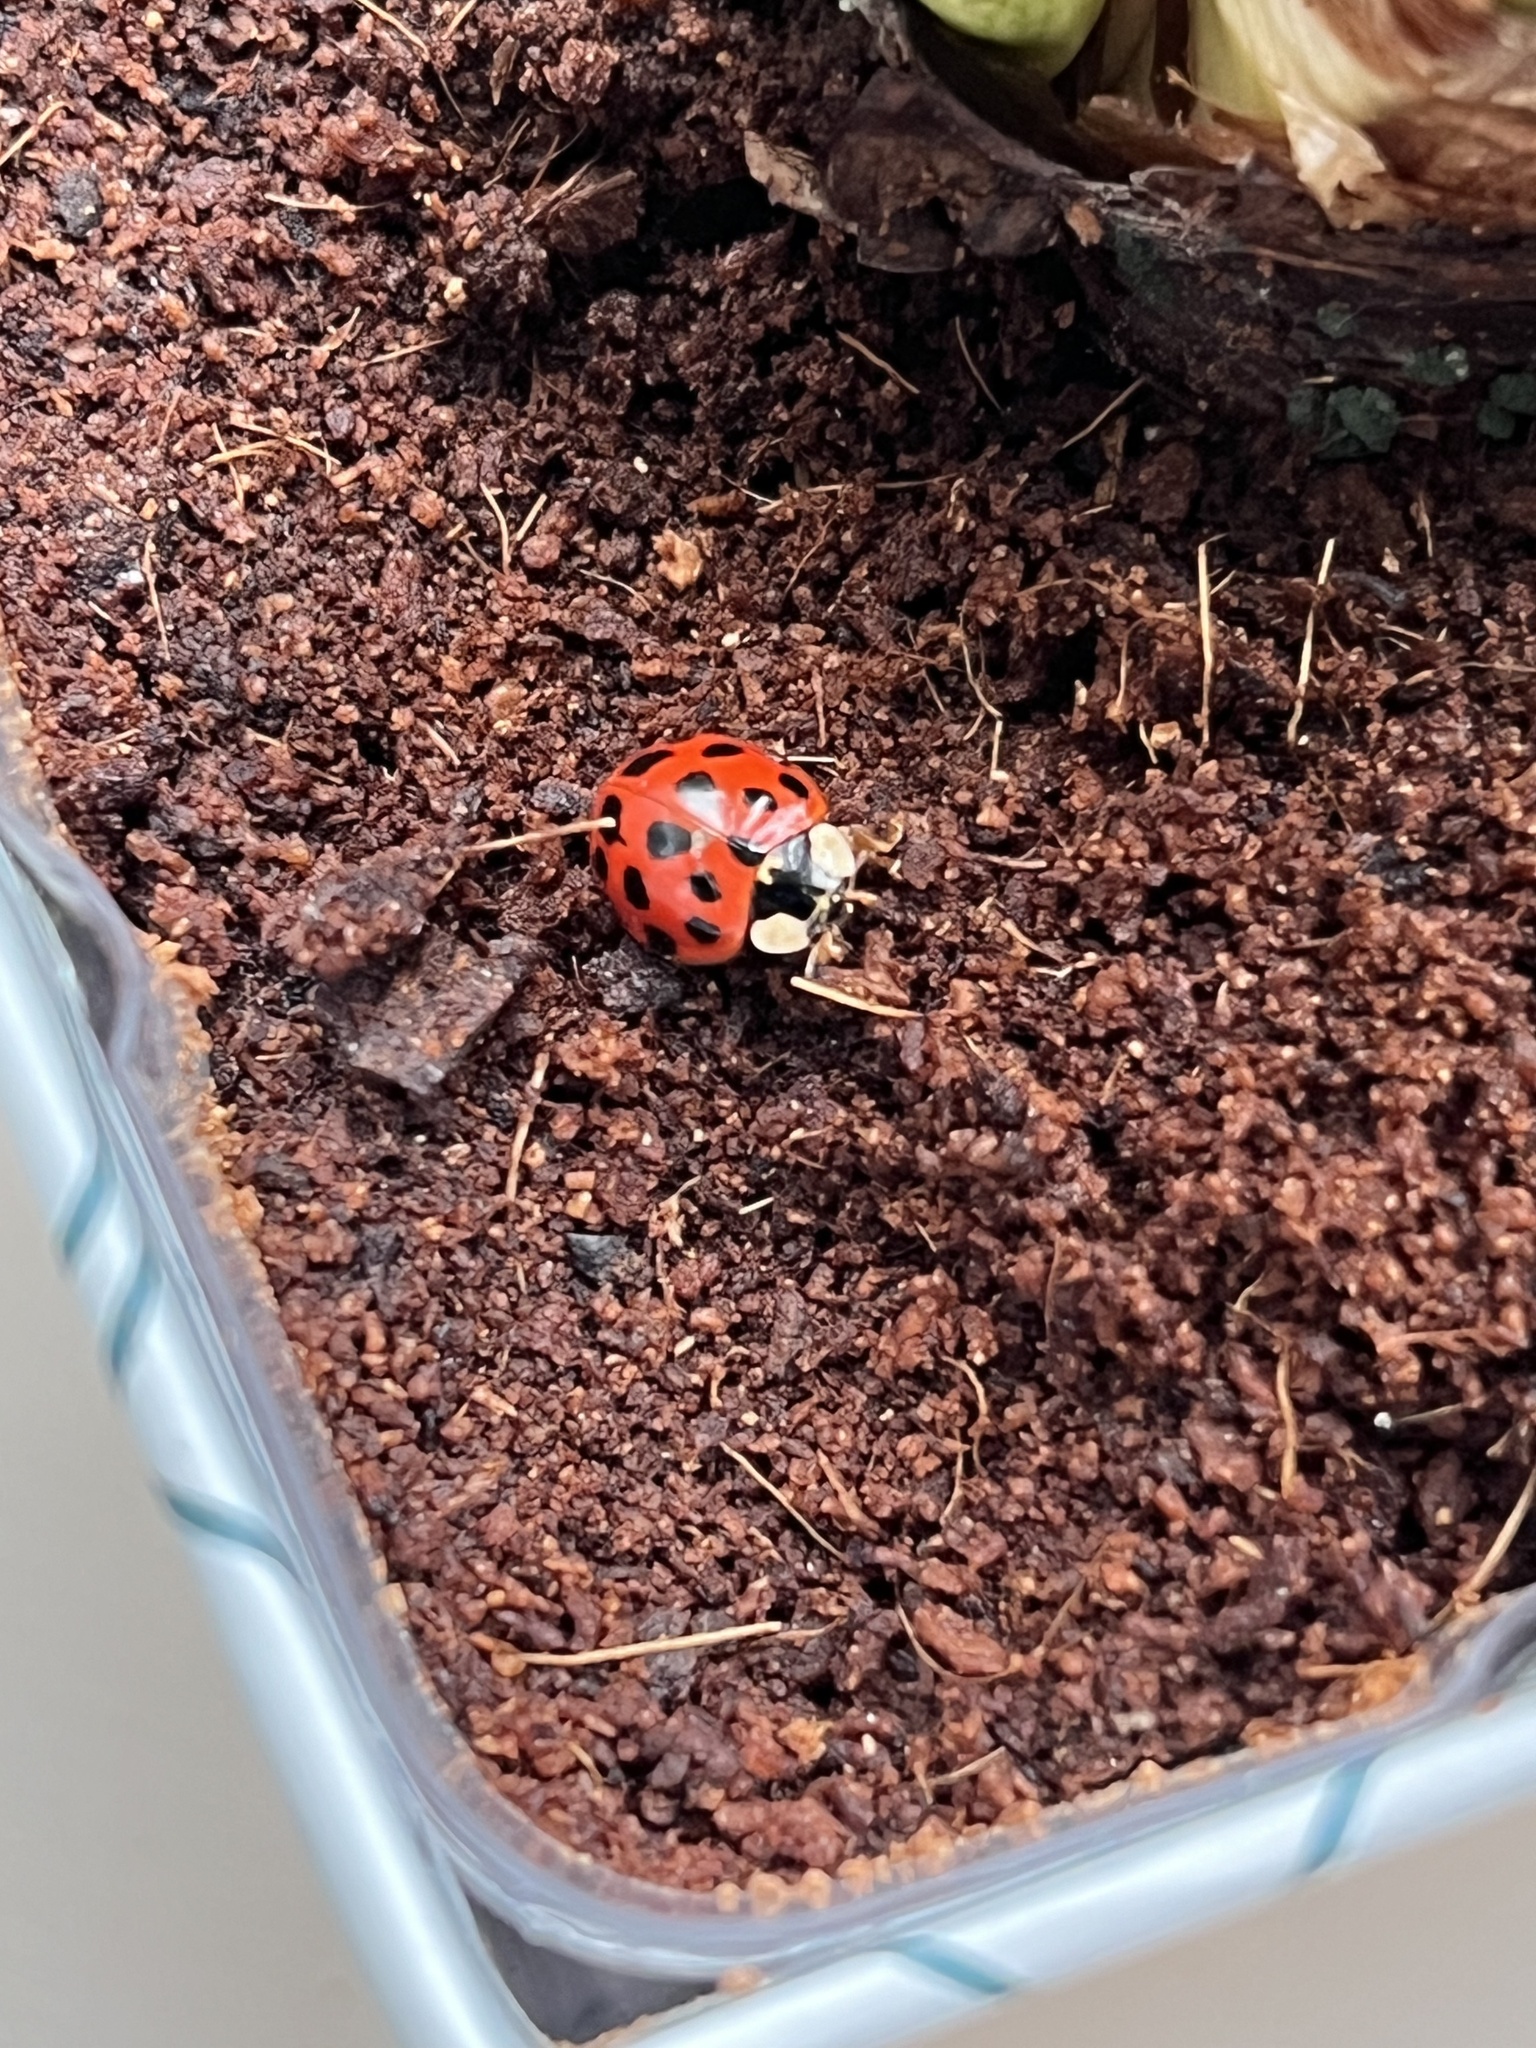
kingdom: Animalia
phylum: Arthropoda
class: Insecta
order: Coleoptera
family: Coccinellidae
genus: Harmonia
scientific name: Harmonia axyridis
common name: Harlequin ladybird
